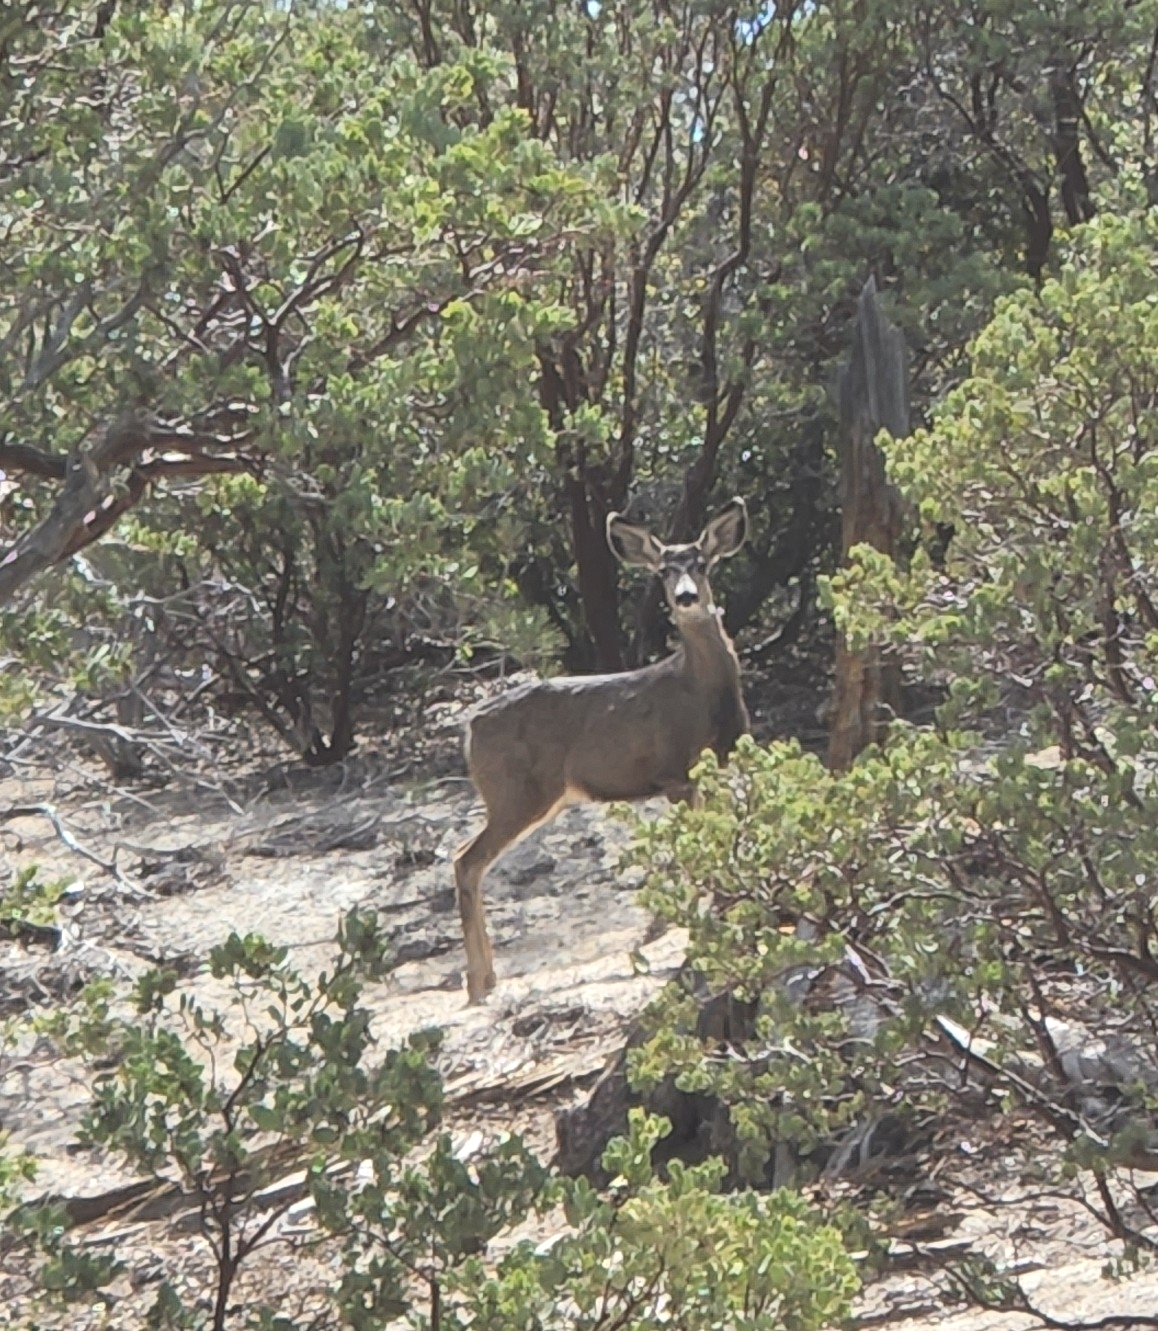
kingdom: Animalia
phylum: Chordata
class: Mammalia
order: Artiodactyla
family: Cervidae
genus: Odocoileus
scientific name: Odocoileus hemionus
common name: Mule deer
